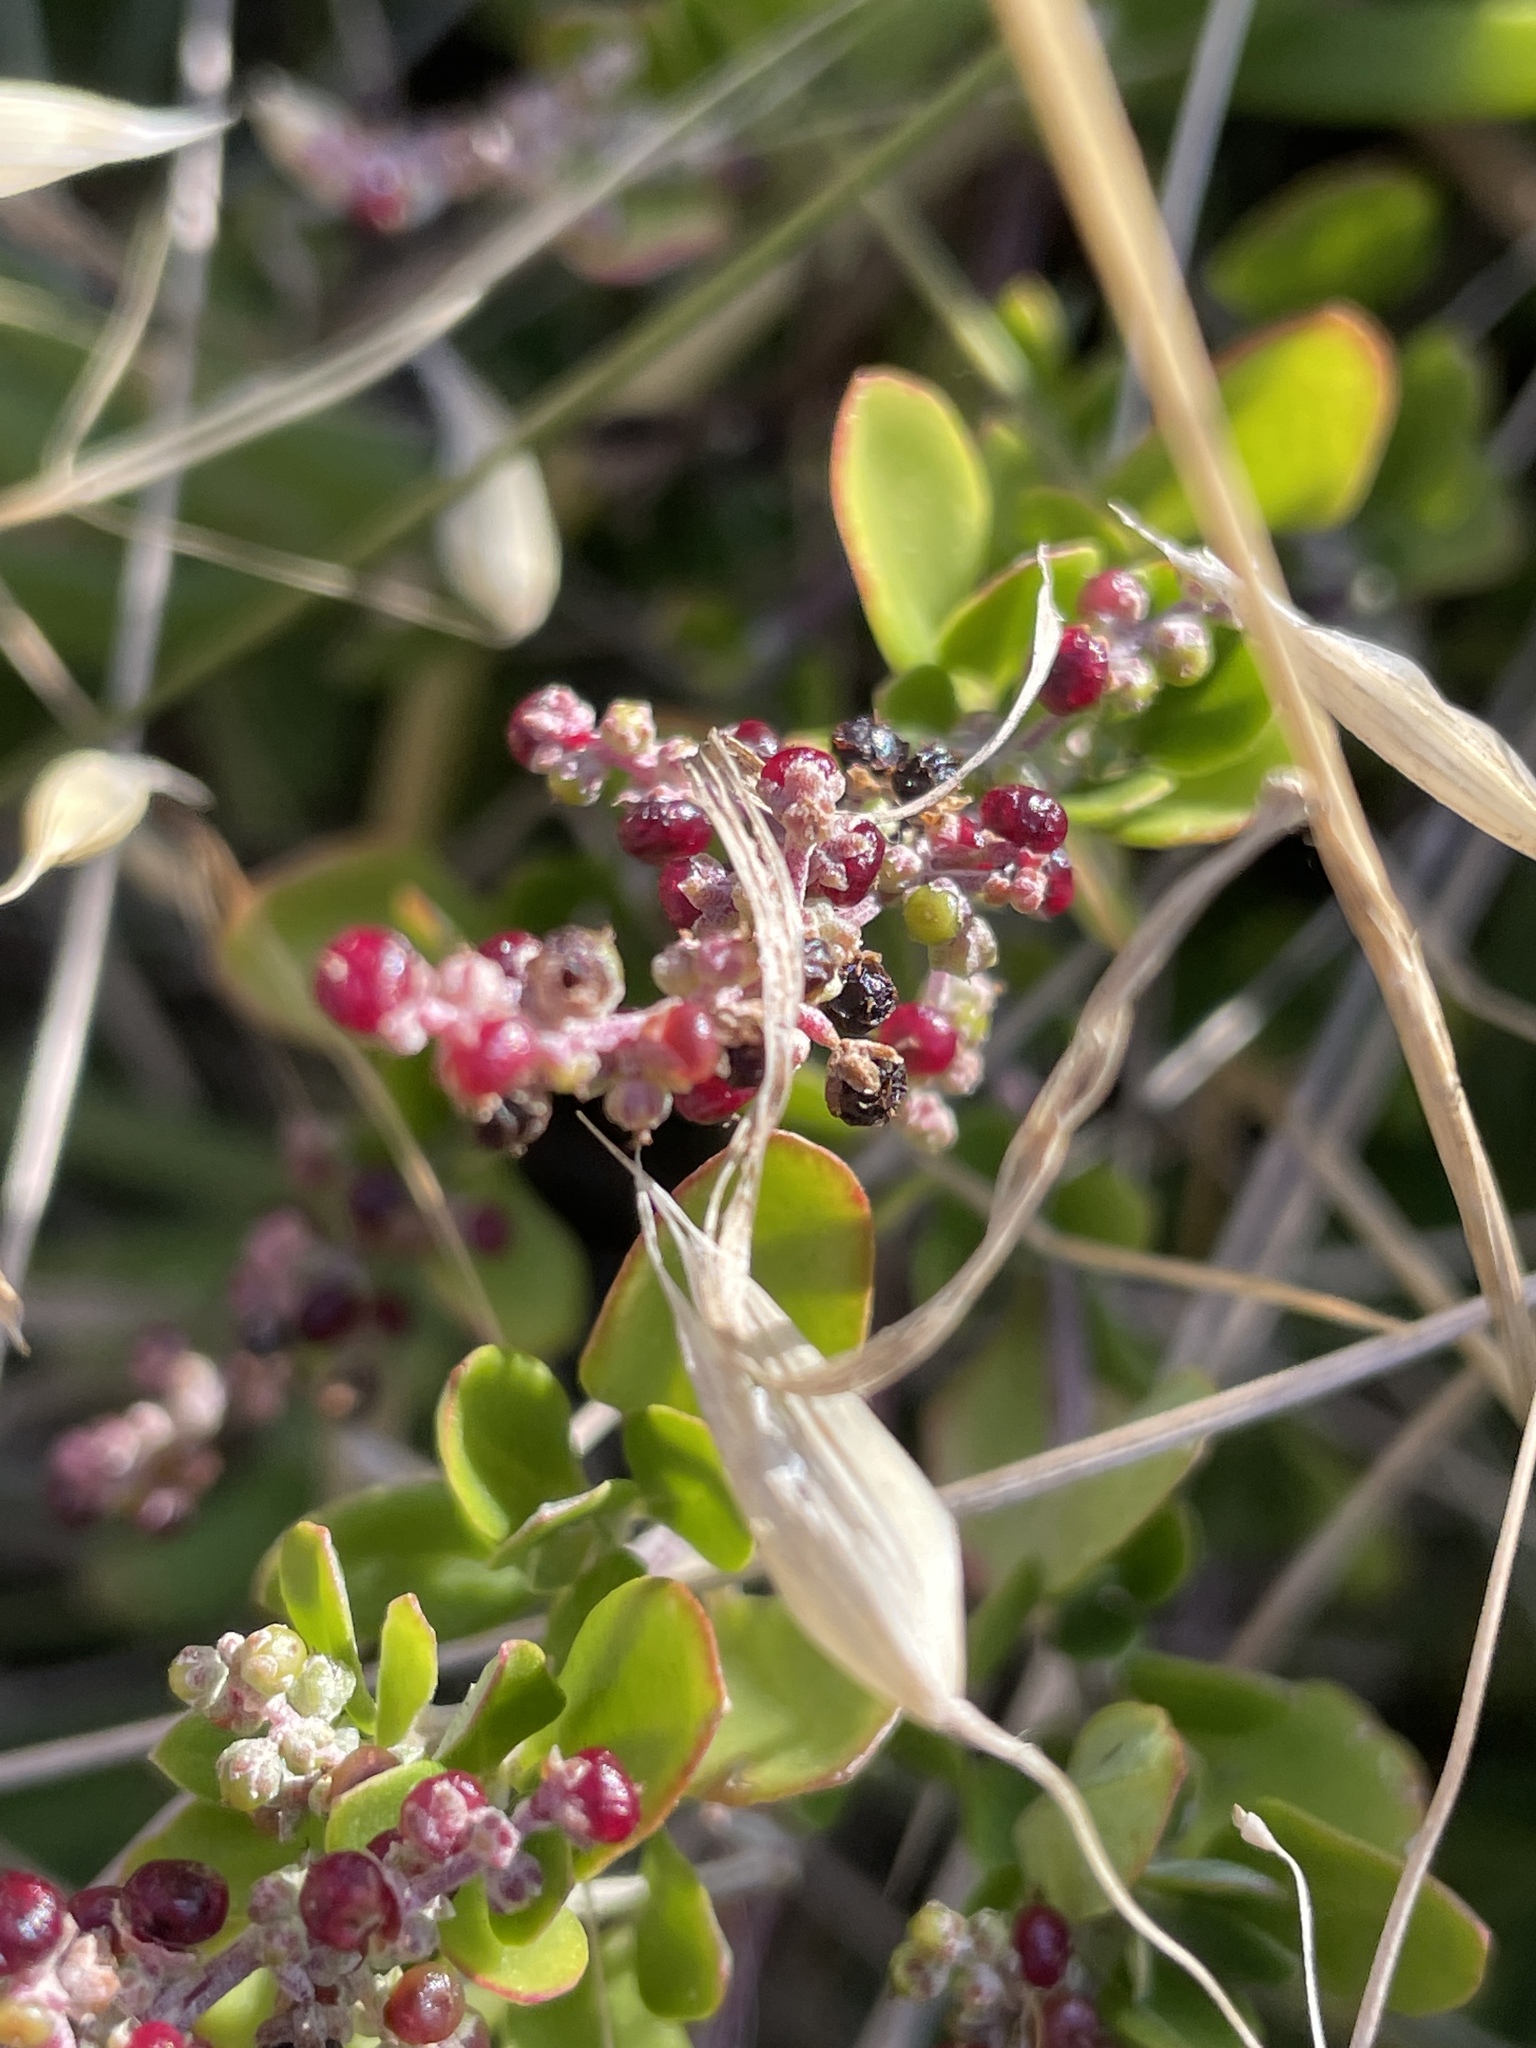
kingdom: Plantae
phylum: Tracheophyta
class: Magnoliopsida
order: Caryophyllales
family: Amaranthaceae
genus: Chenopodium
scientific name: Chenopodium candolleanum
